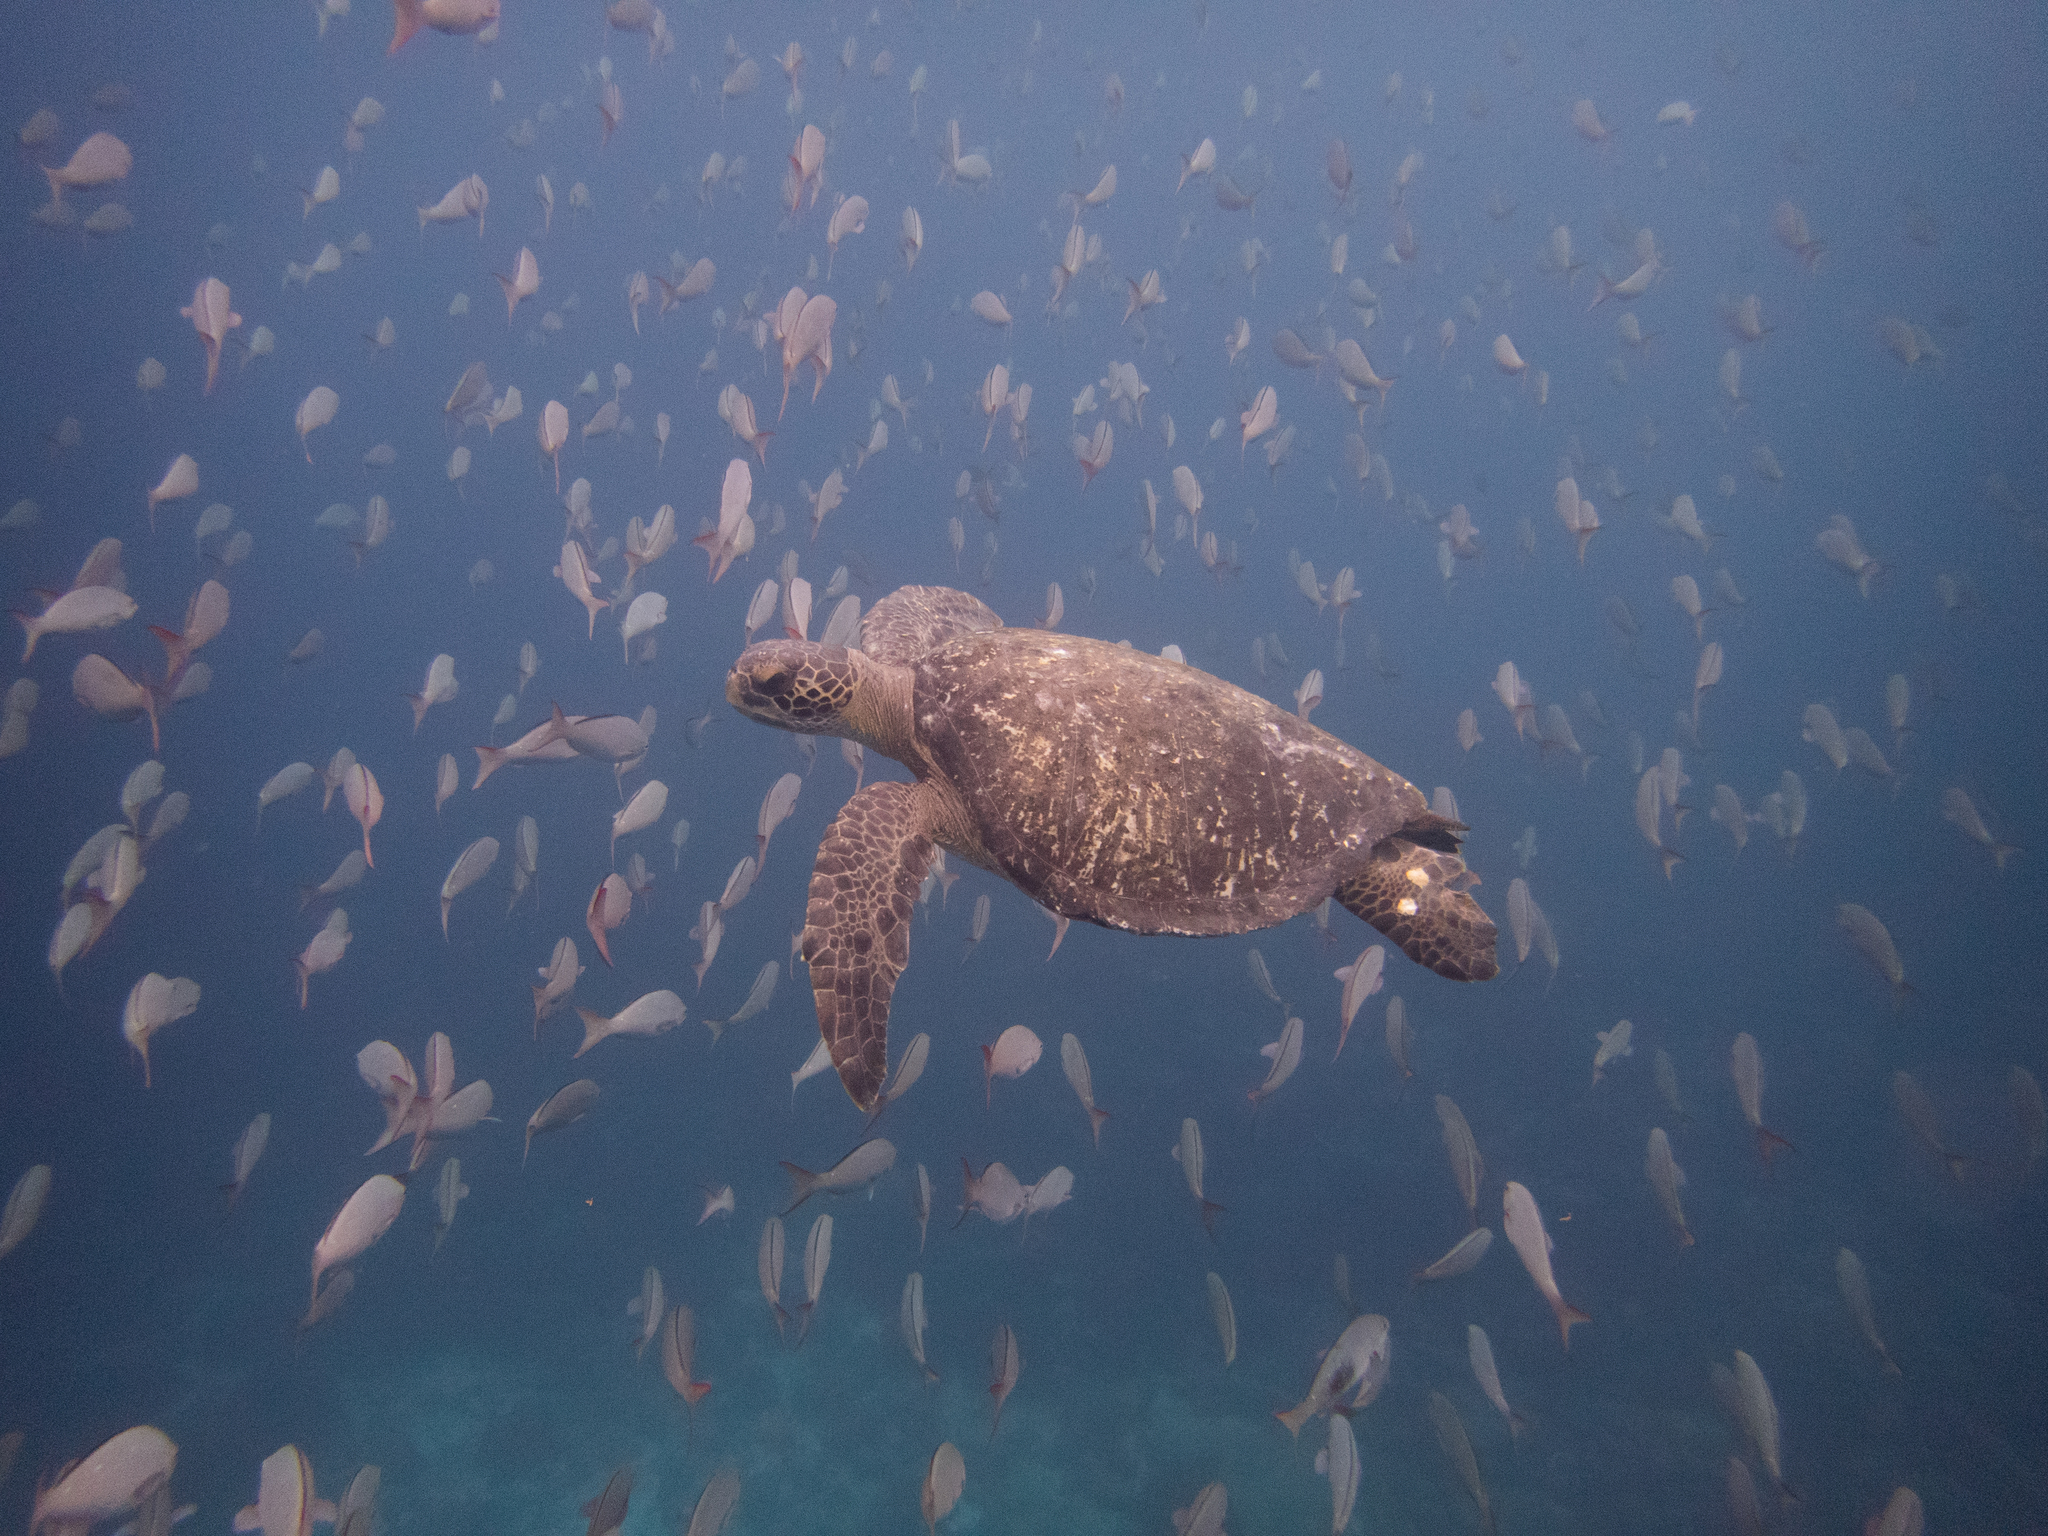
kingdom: Animalia
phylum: Chordata
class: Testudines
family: Cheloniidae
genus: Chelonia
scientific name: Chelonia mydas
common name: Green turtle
